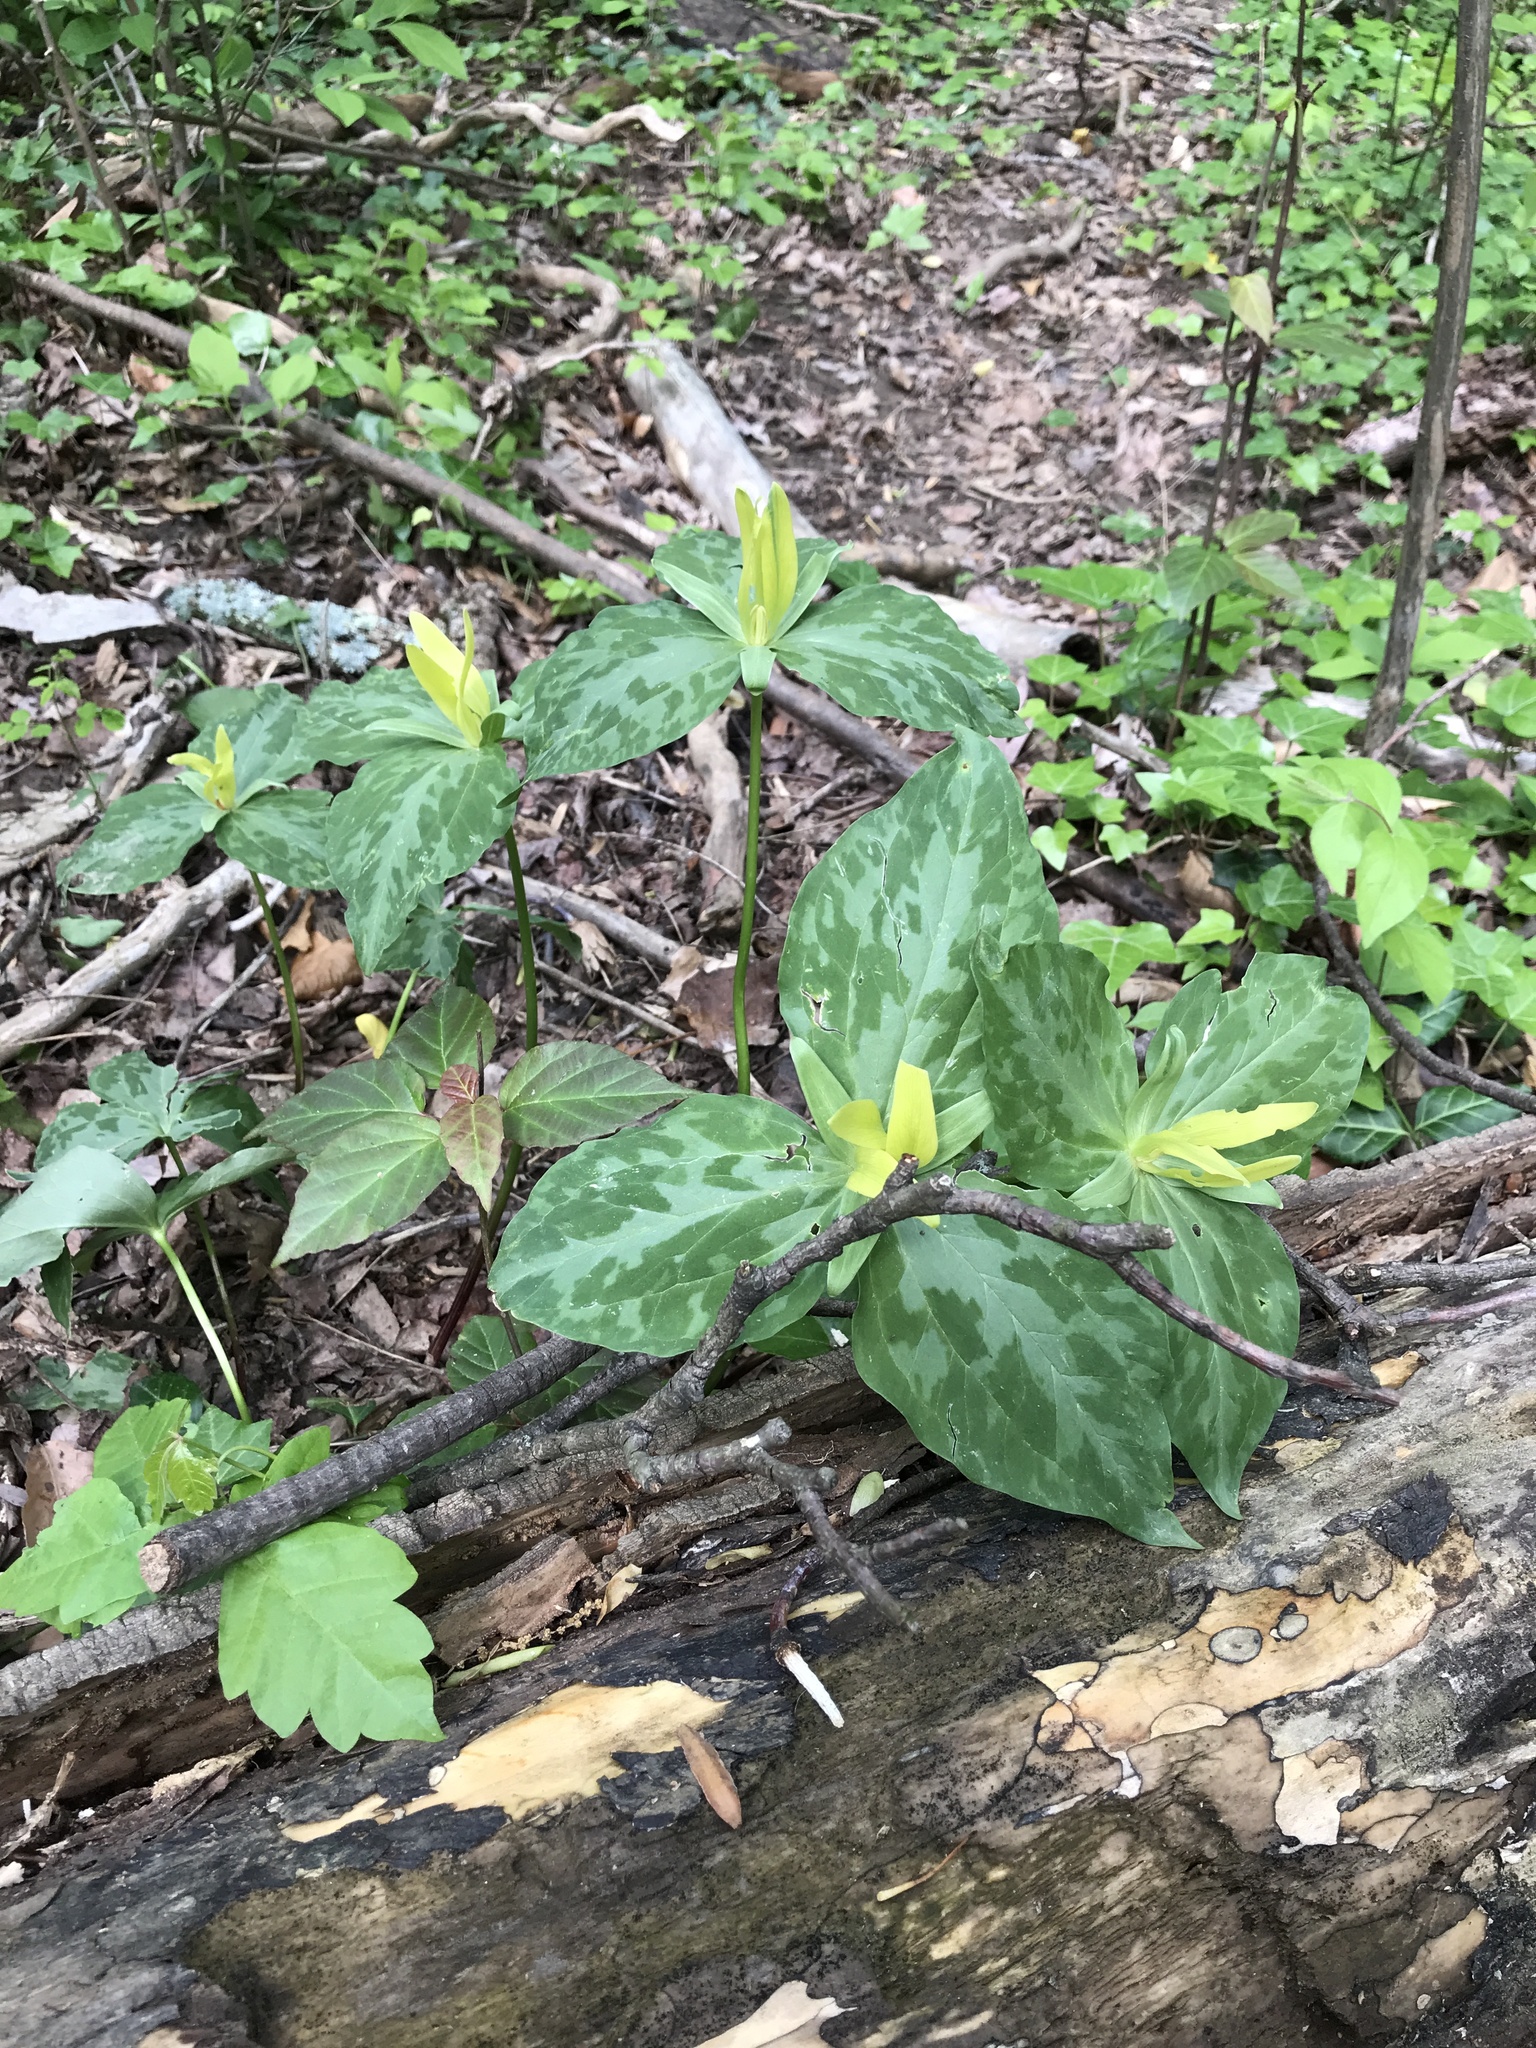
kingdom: Plantae
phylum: Tracheophyta
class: Liliopsida
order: Liliales
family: Melanthiaceae
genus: Trillium
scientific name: Trillium luteum
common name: Wax trillium
